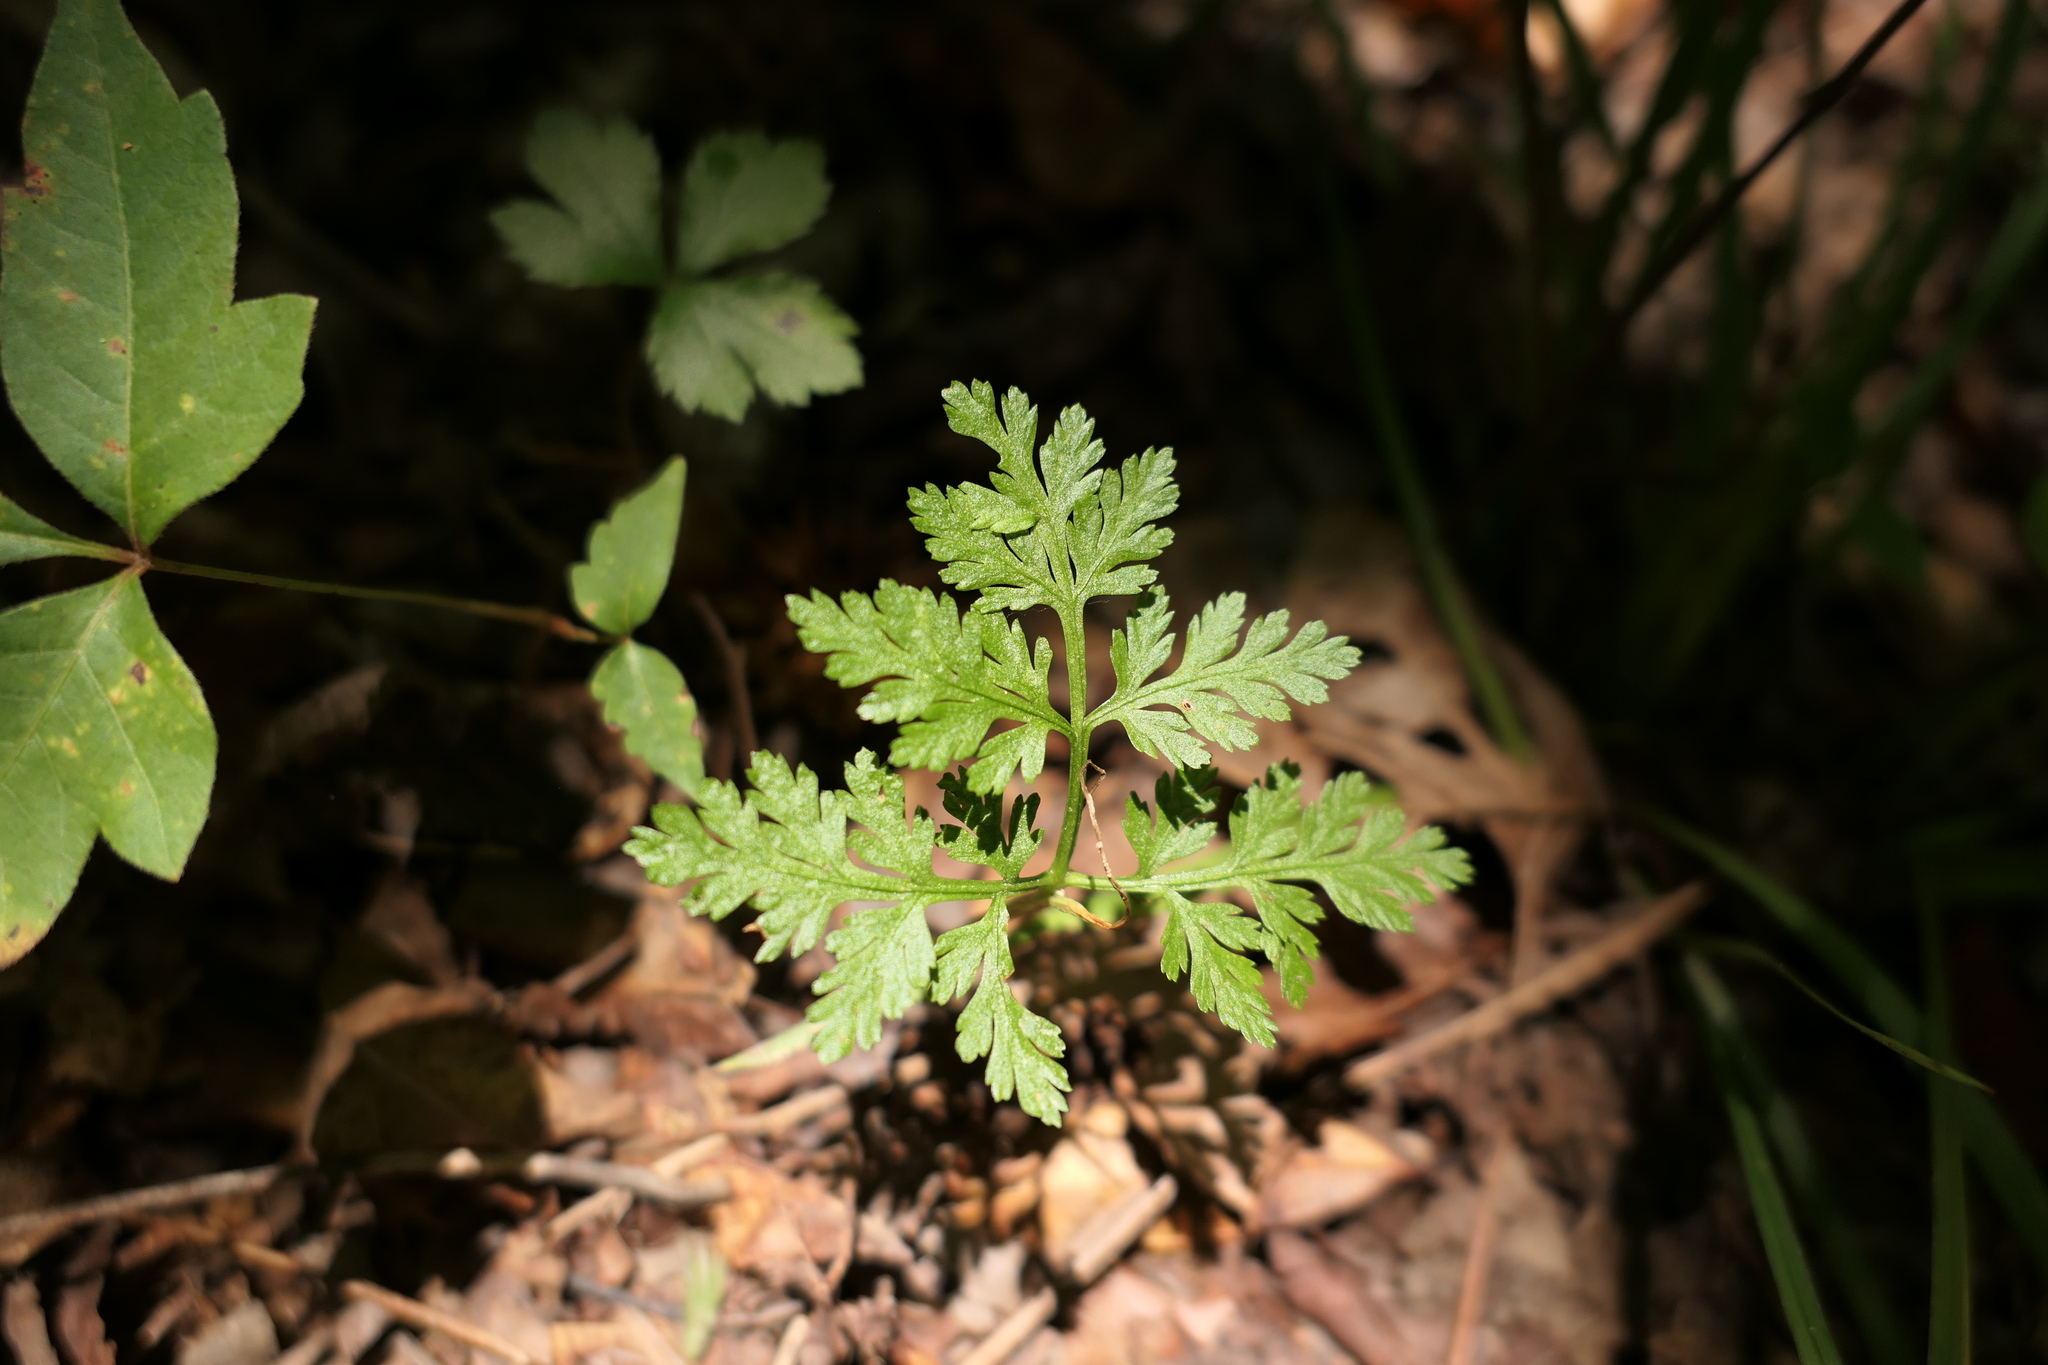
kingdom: Plantae
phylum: Tracheophyta
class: Polypodiopsida
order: Ophioglossales
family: Ophioglossaceae
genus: Botrypus
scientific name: Botrypus virginianus
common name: Common grapefern
